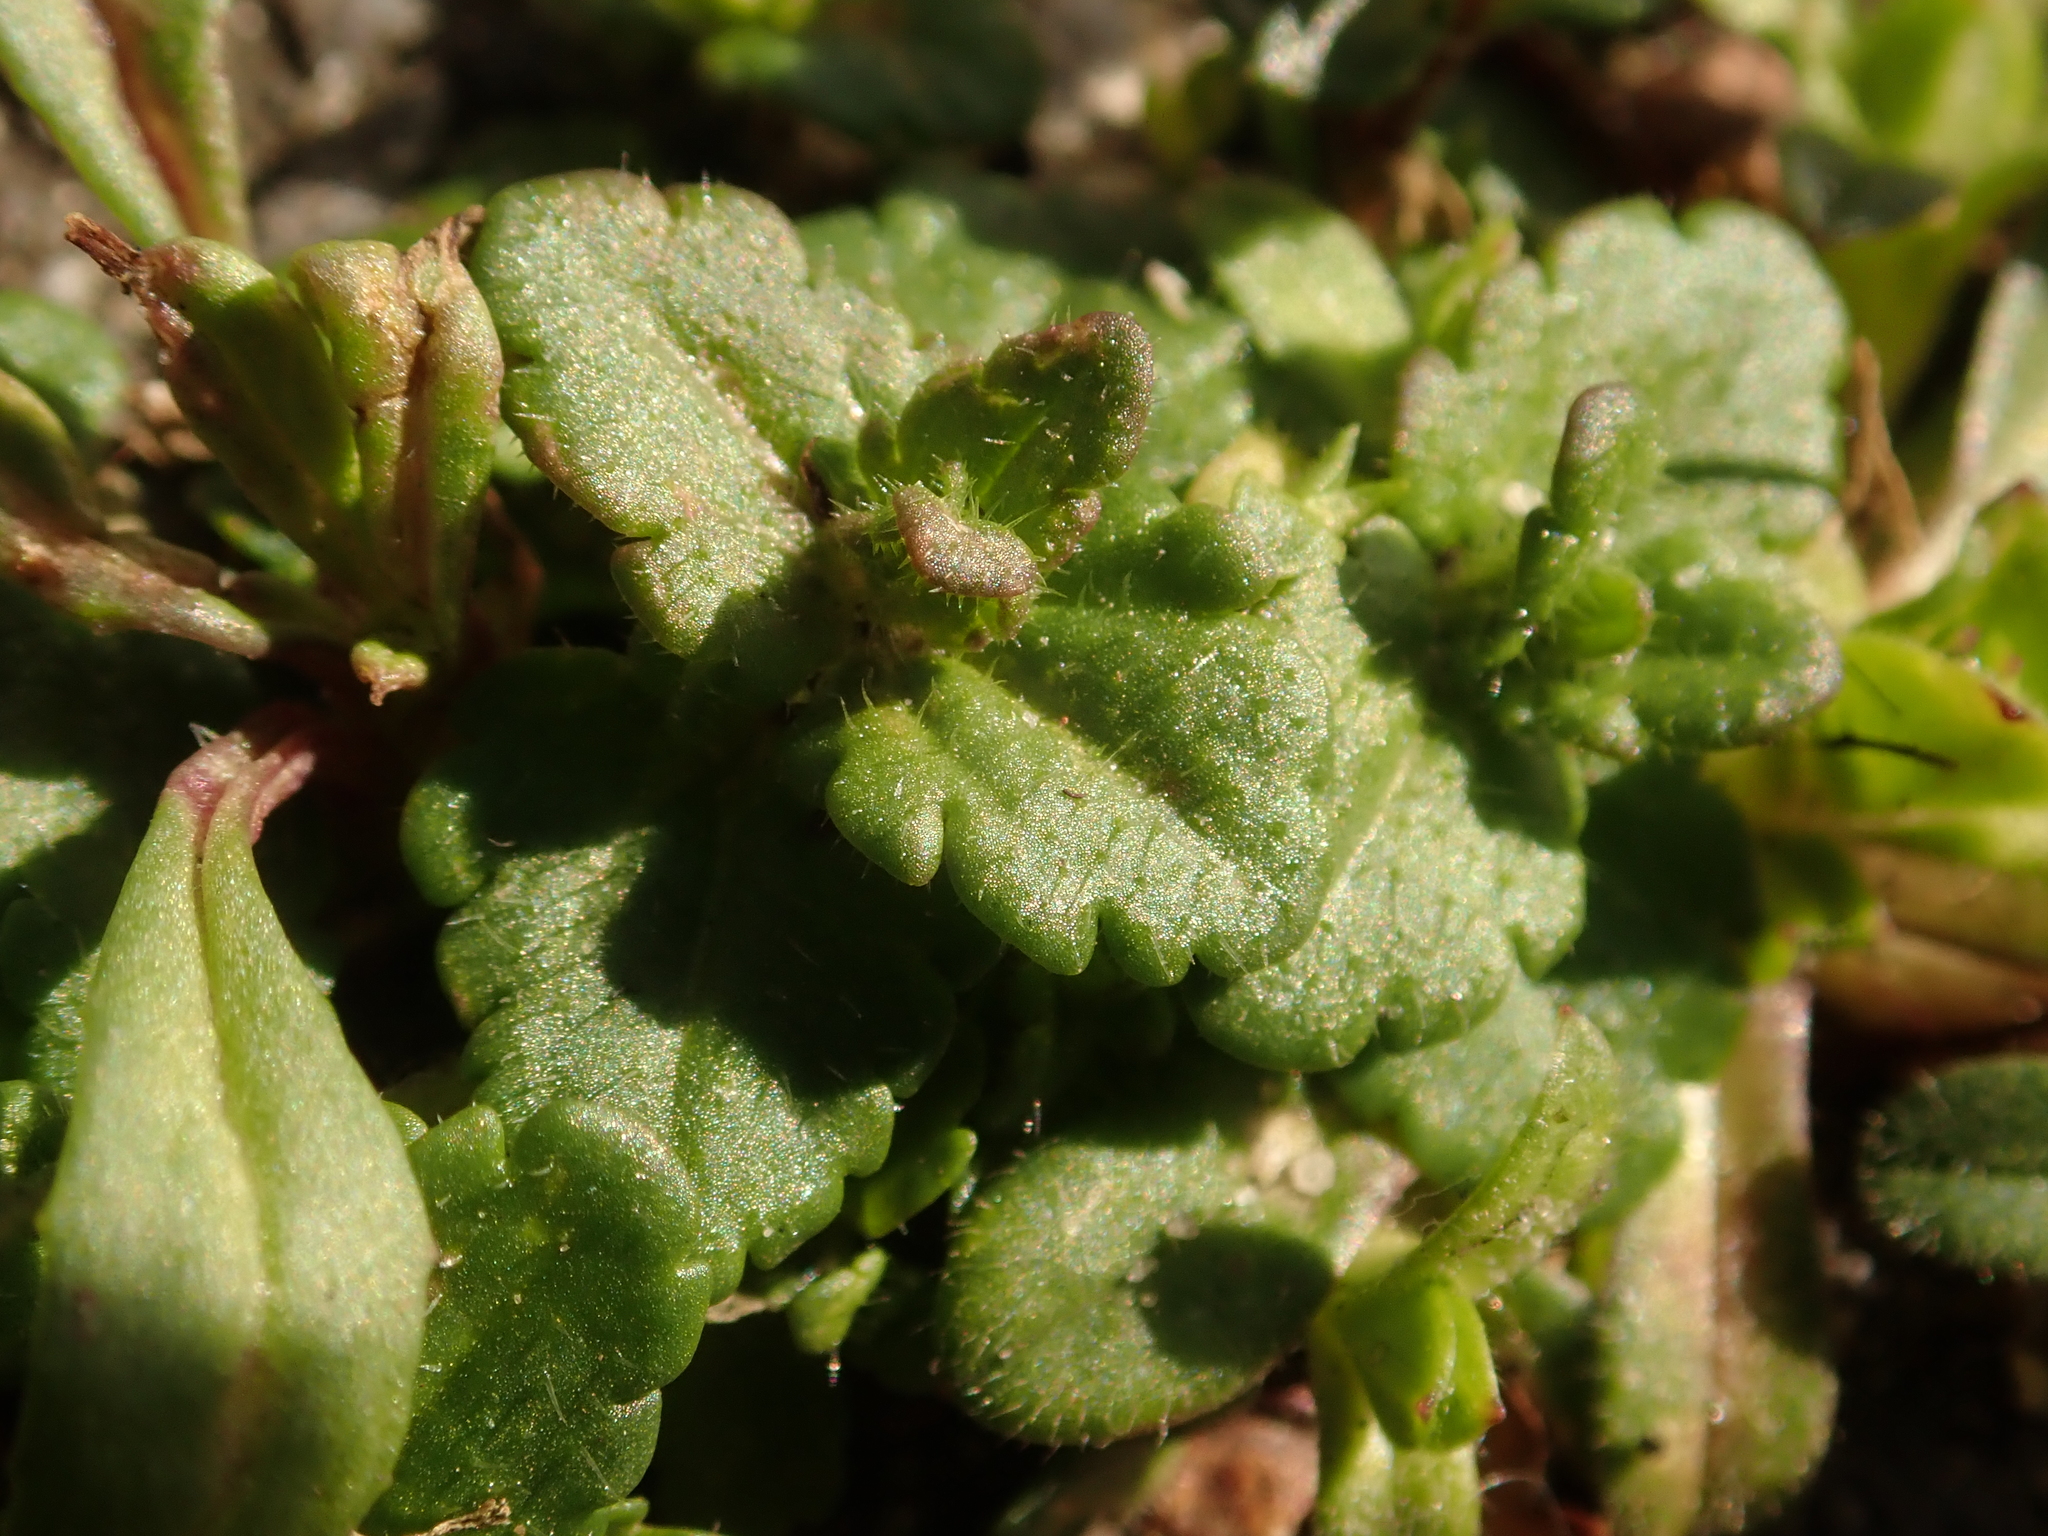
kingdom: Plantae
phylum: Tracheophyta
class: Magnoliopsida
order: Lamiales
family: Plantaginaceae
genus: Veronica
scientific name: Veronica arvensis
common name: Corn speedwell
